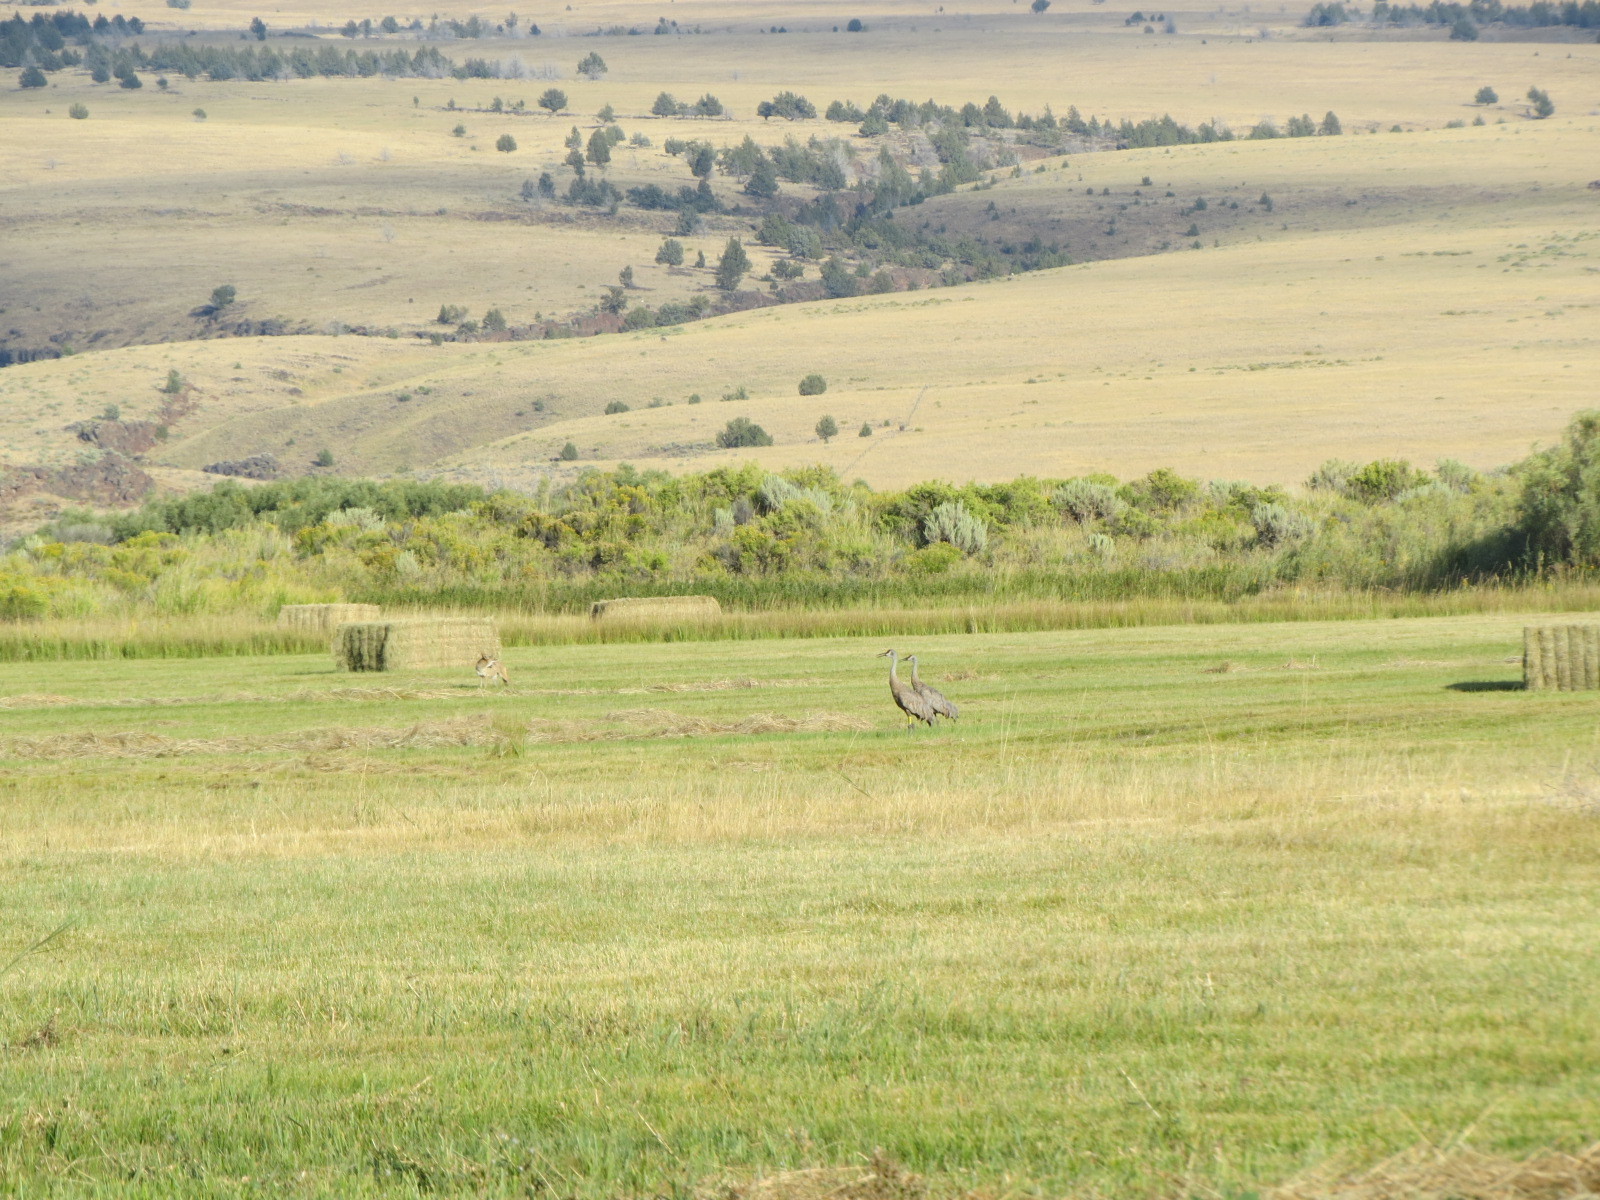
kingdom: Animalia
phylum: Chordata
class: Aves
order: Gruiformes
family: Gruidae
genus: Grus
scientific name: Grus canadensis
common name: Sandhill crane
